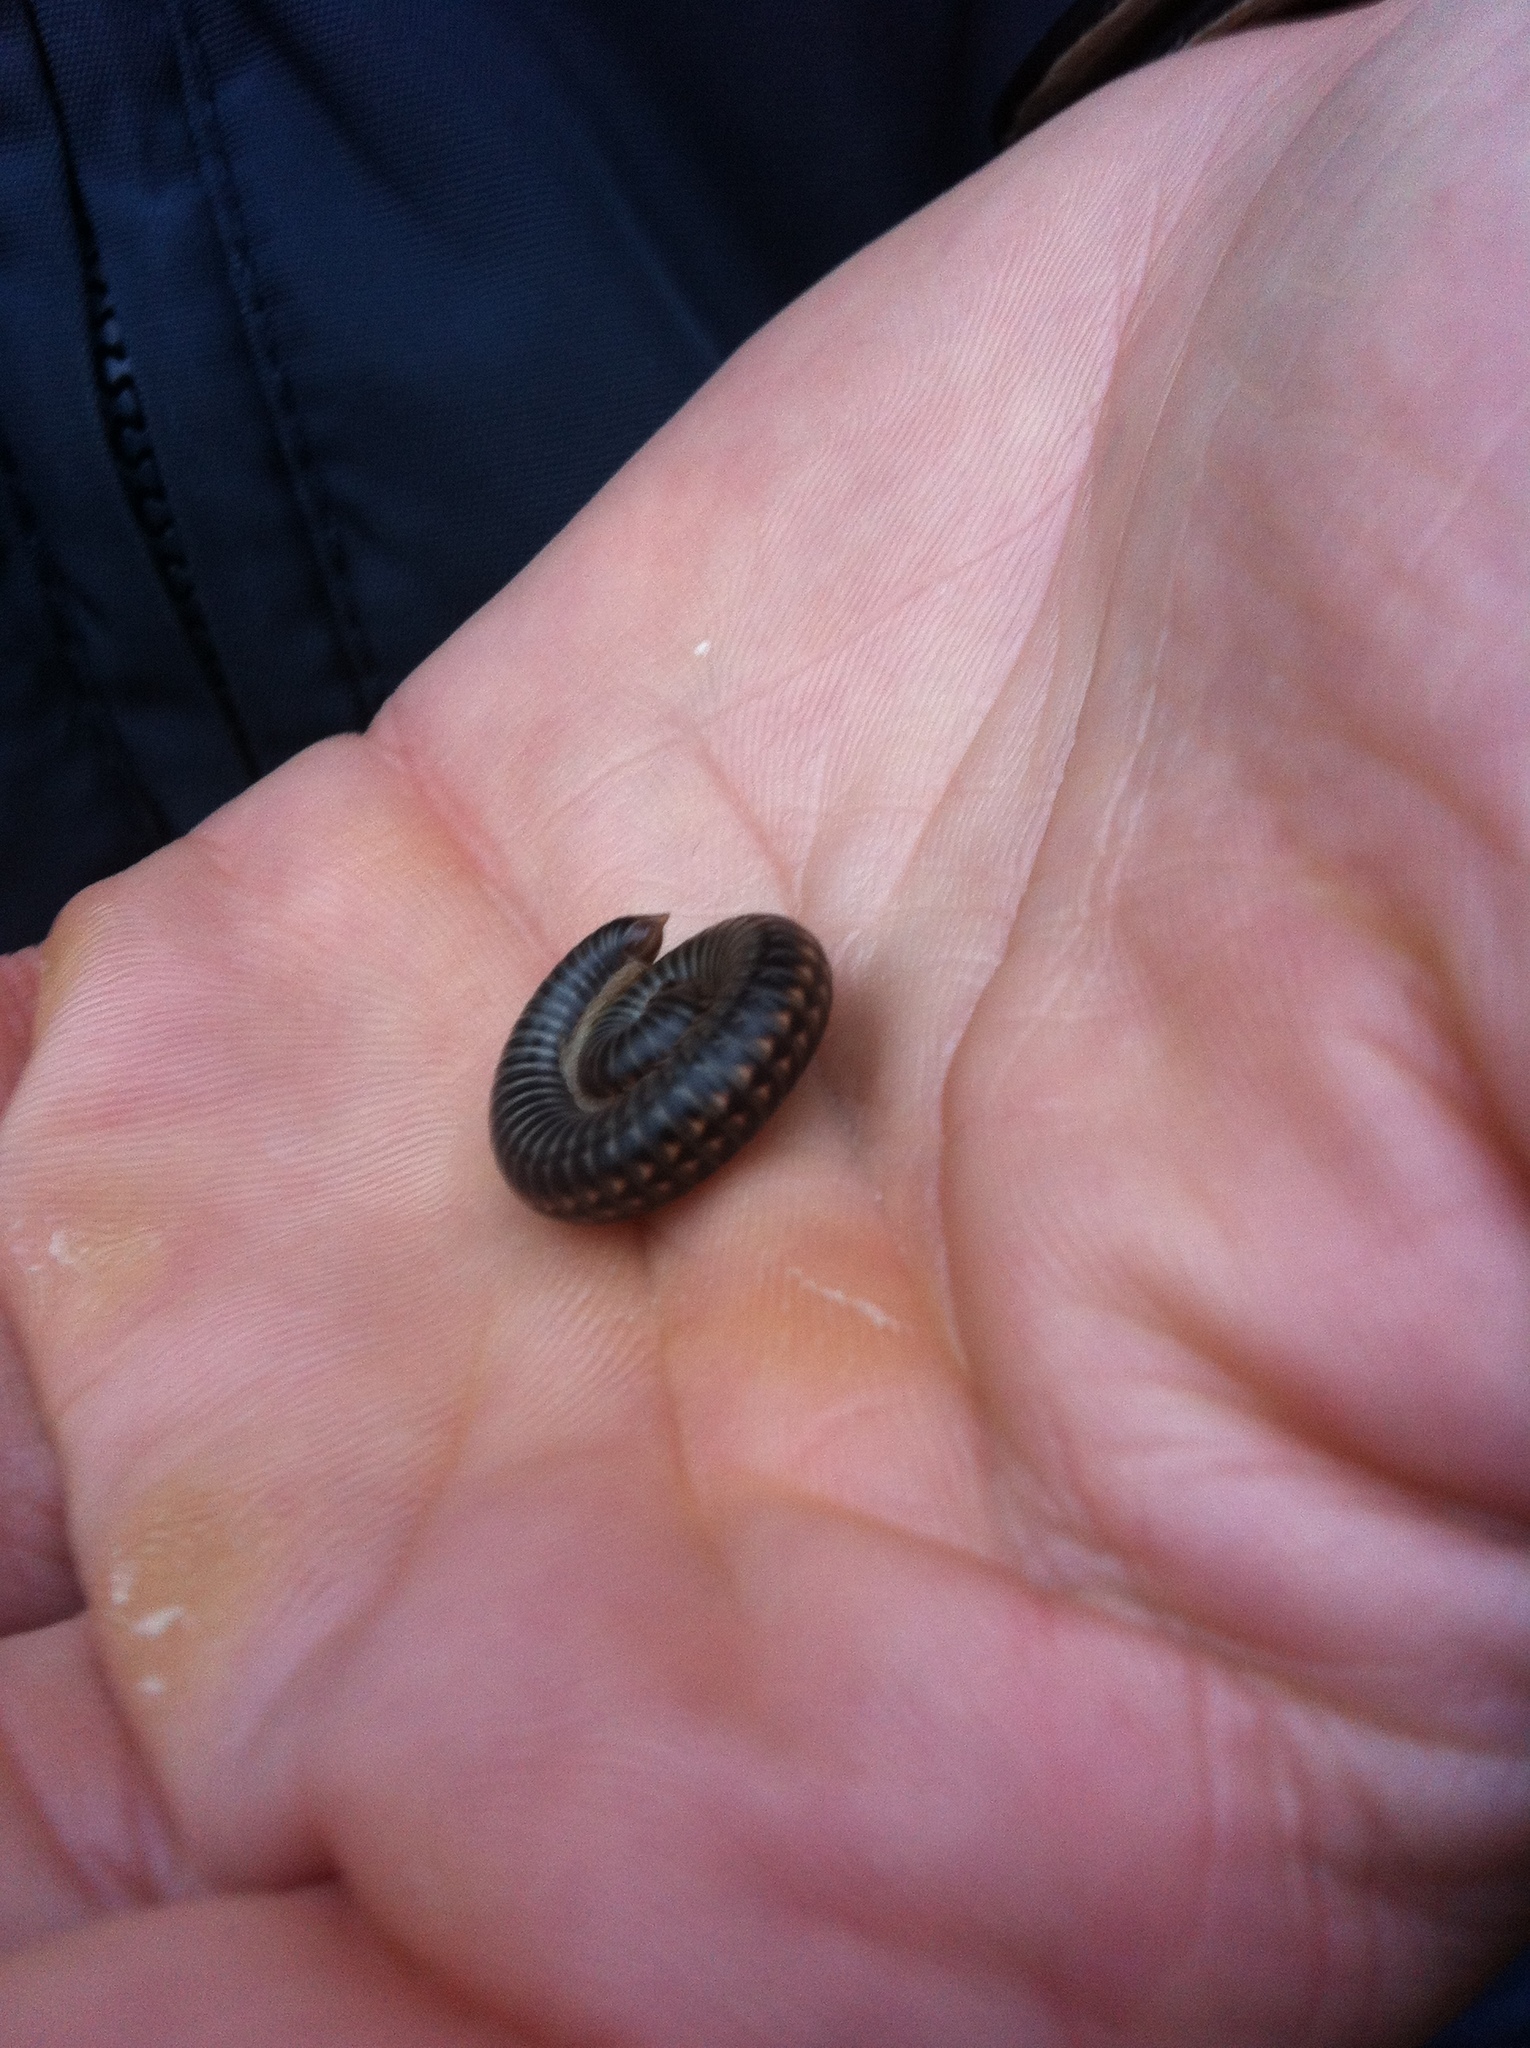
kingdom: Animalia
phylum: Arthropoda
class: Diplopoda
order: Julida
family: Julidae
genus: Ommatoiulus
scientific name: Ommatoiulus sabulosus
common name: Striped millipede
